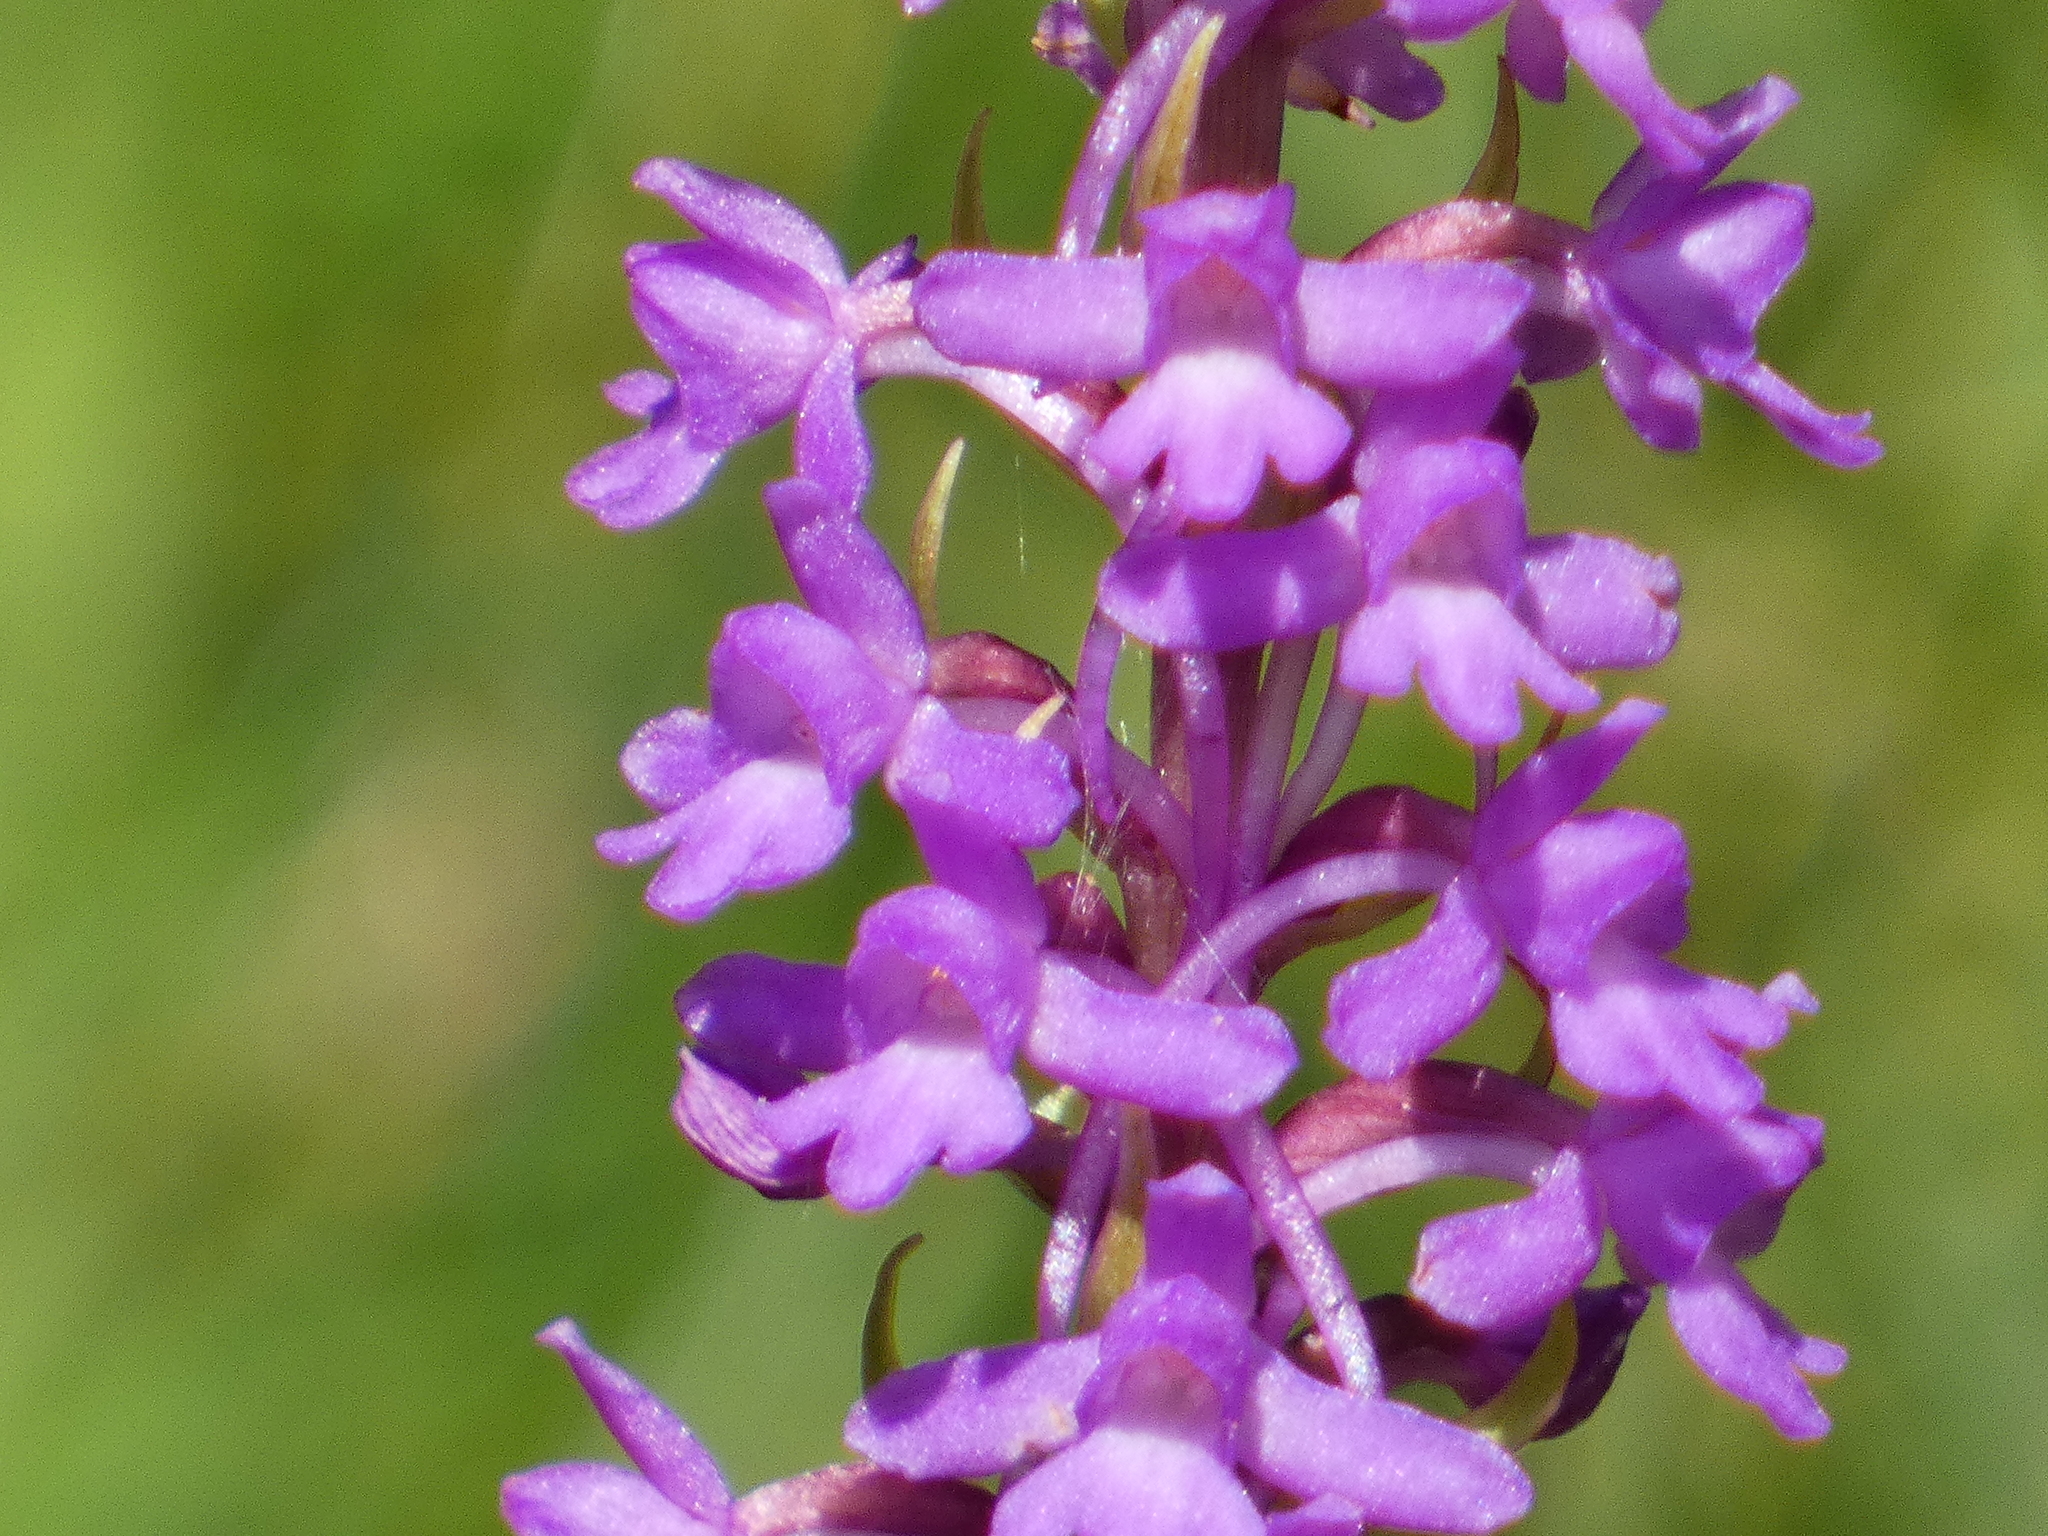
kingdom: Plantae
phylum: Tracheophyta
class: Liliopsida
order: Asparagales
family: Orchidaceae
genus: Gymnadenia
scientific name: Gymnadenia conopsea
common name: Fragrant orchid
